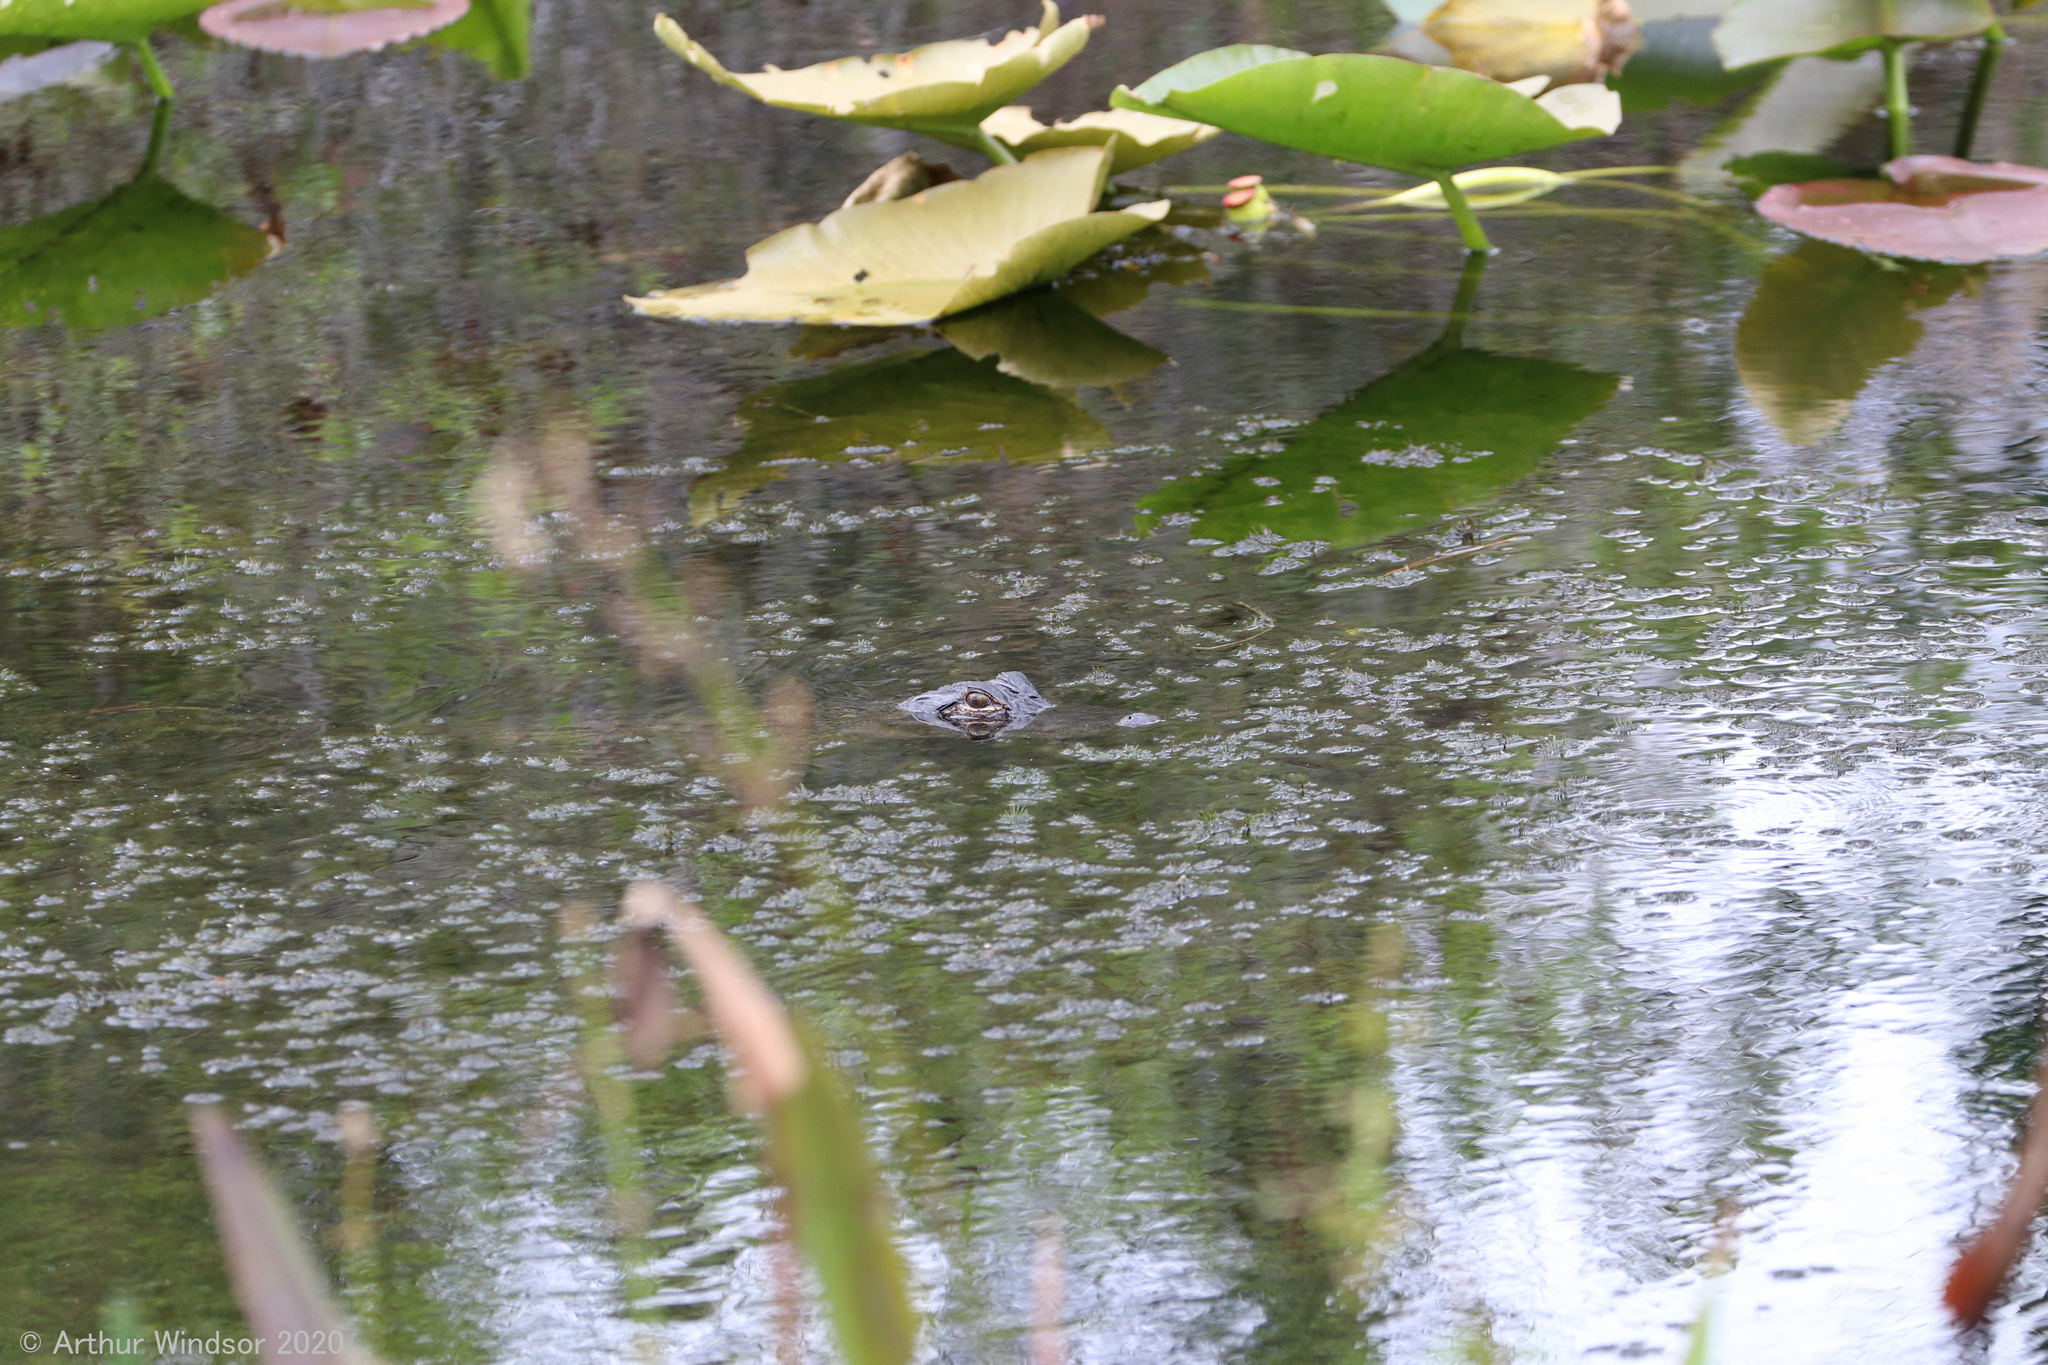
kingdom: Animalia
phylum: Chordata
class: Crocodylia
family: Alligatoridae
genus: Alligator
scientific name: Alligator mississippiensis
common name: American alligator
